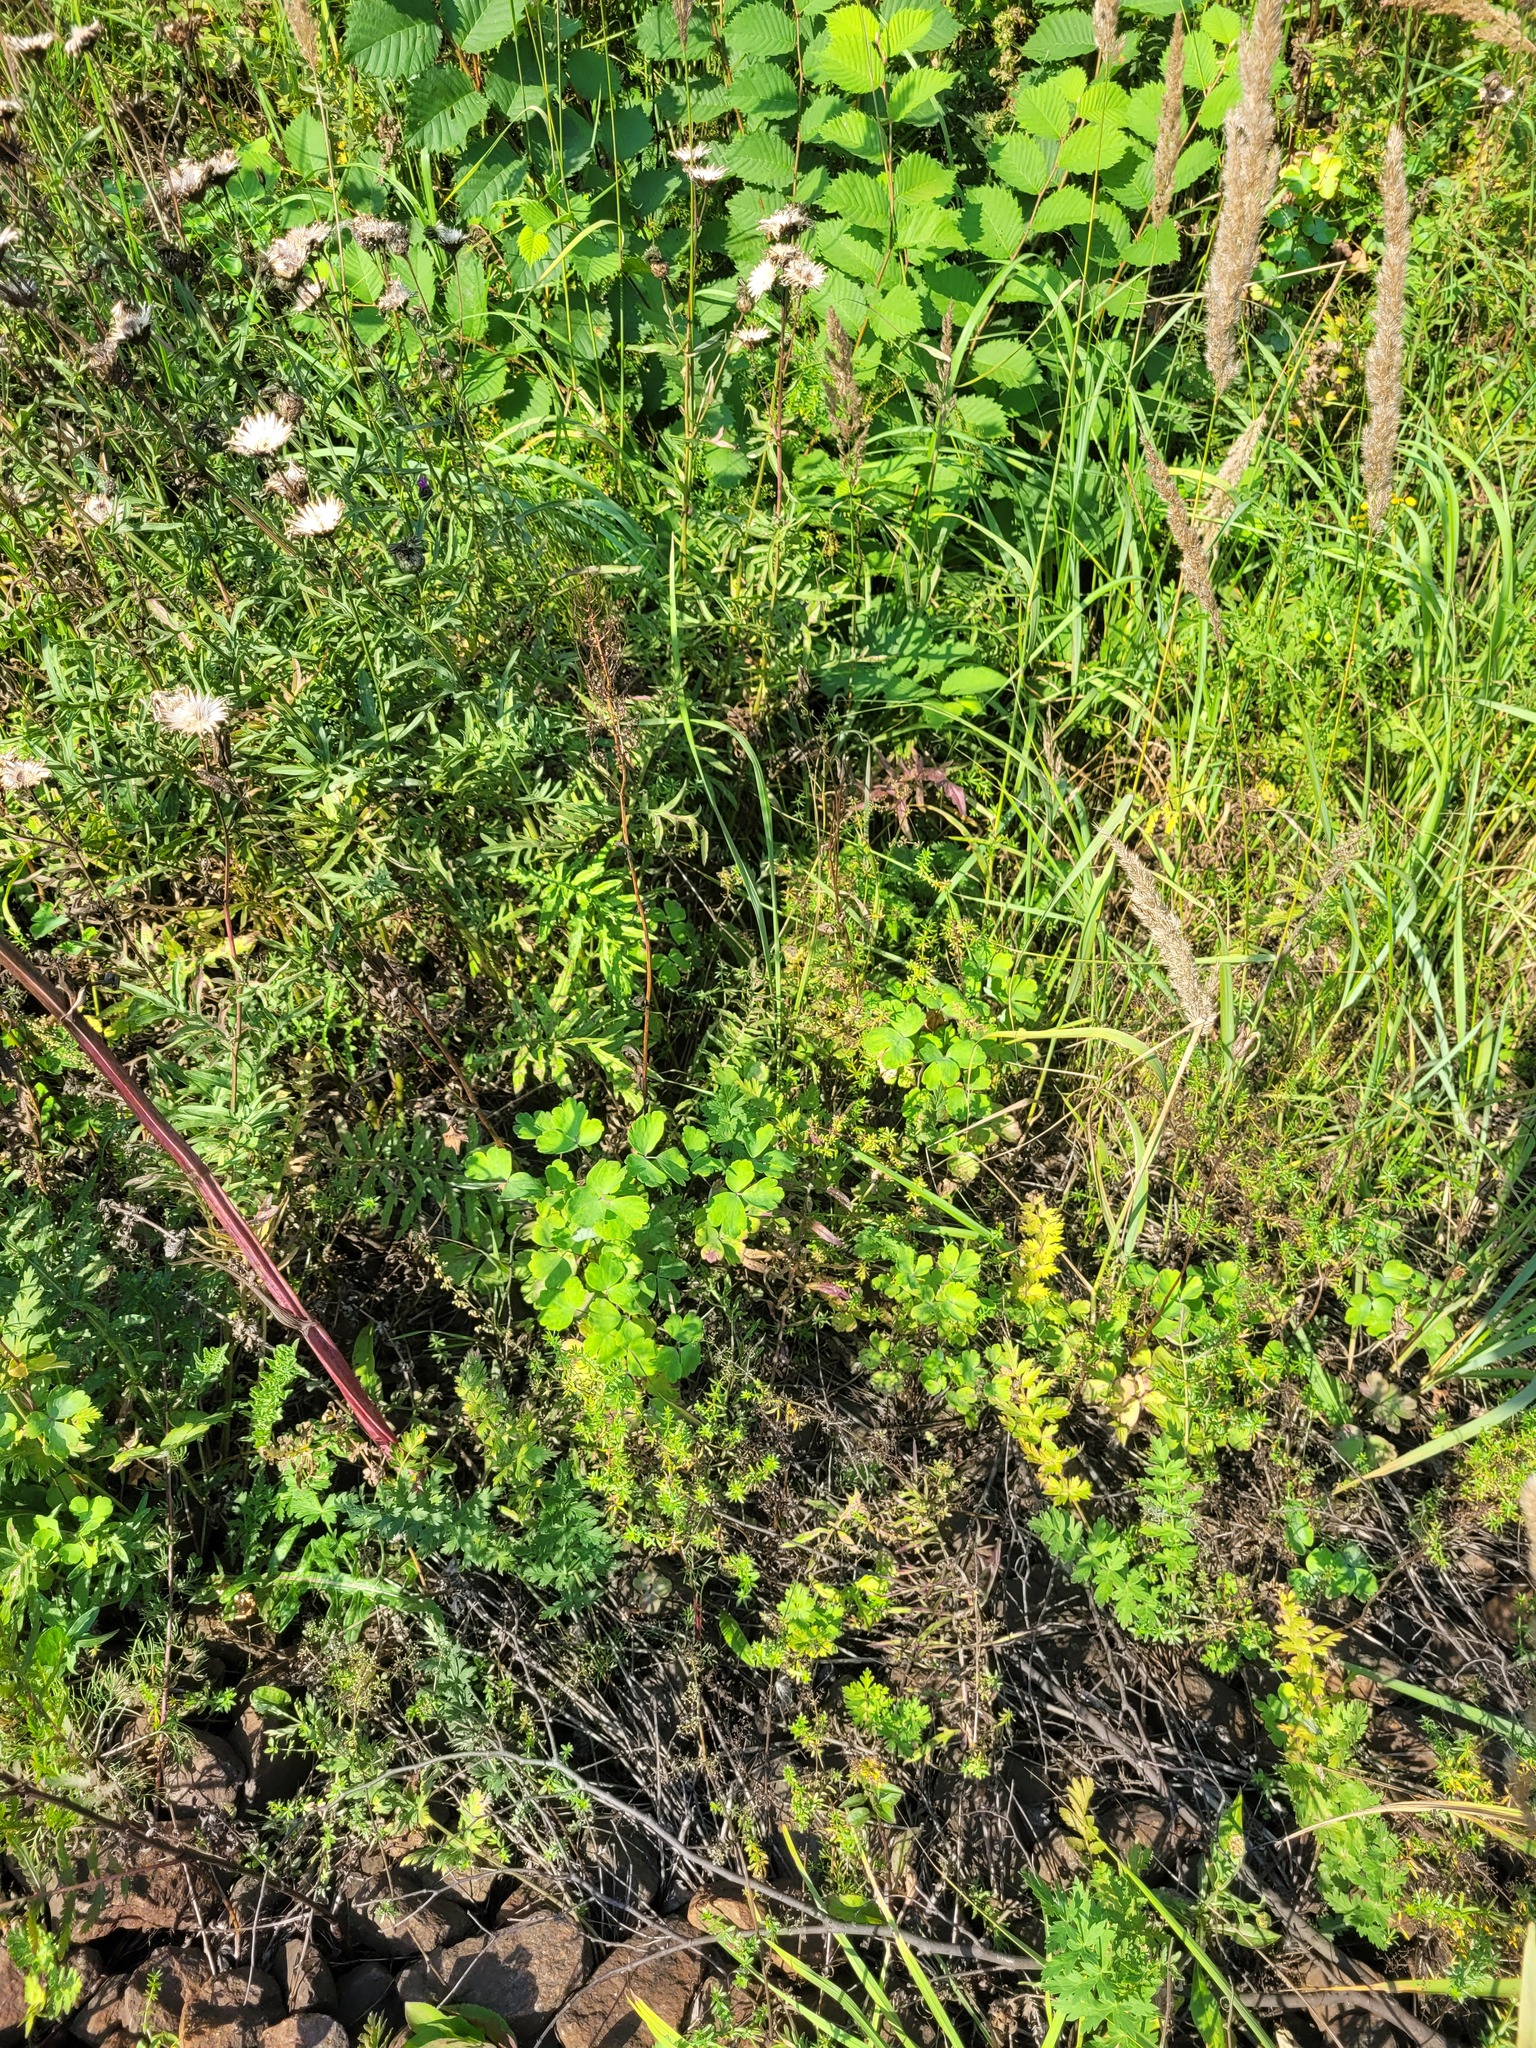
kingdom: Plantae
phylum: Tracheophyta
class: Magnoliopsida
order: Ranunculales
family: Ranunculaceae
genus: Aquilegia
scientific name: Aquilegia vulgaris
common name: Columbine
